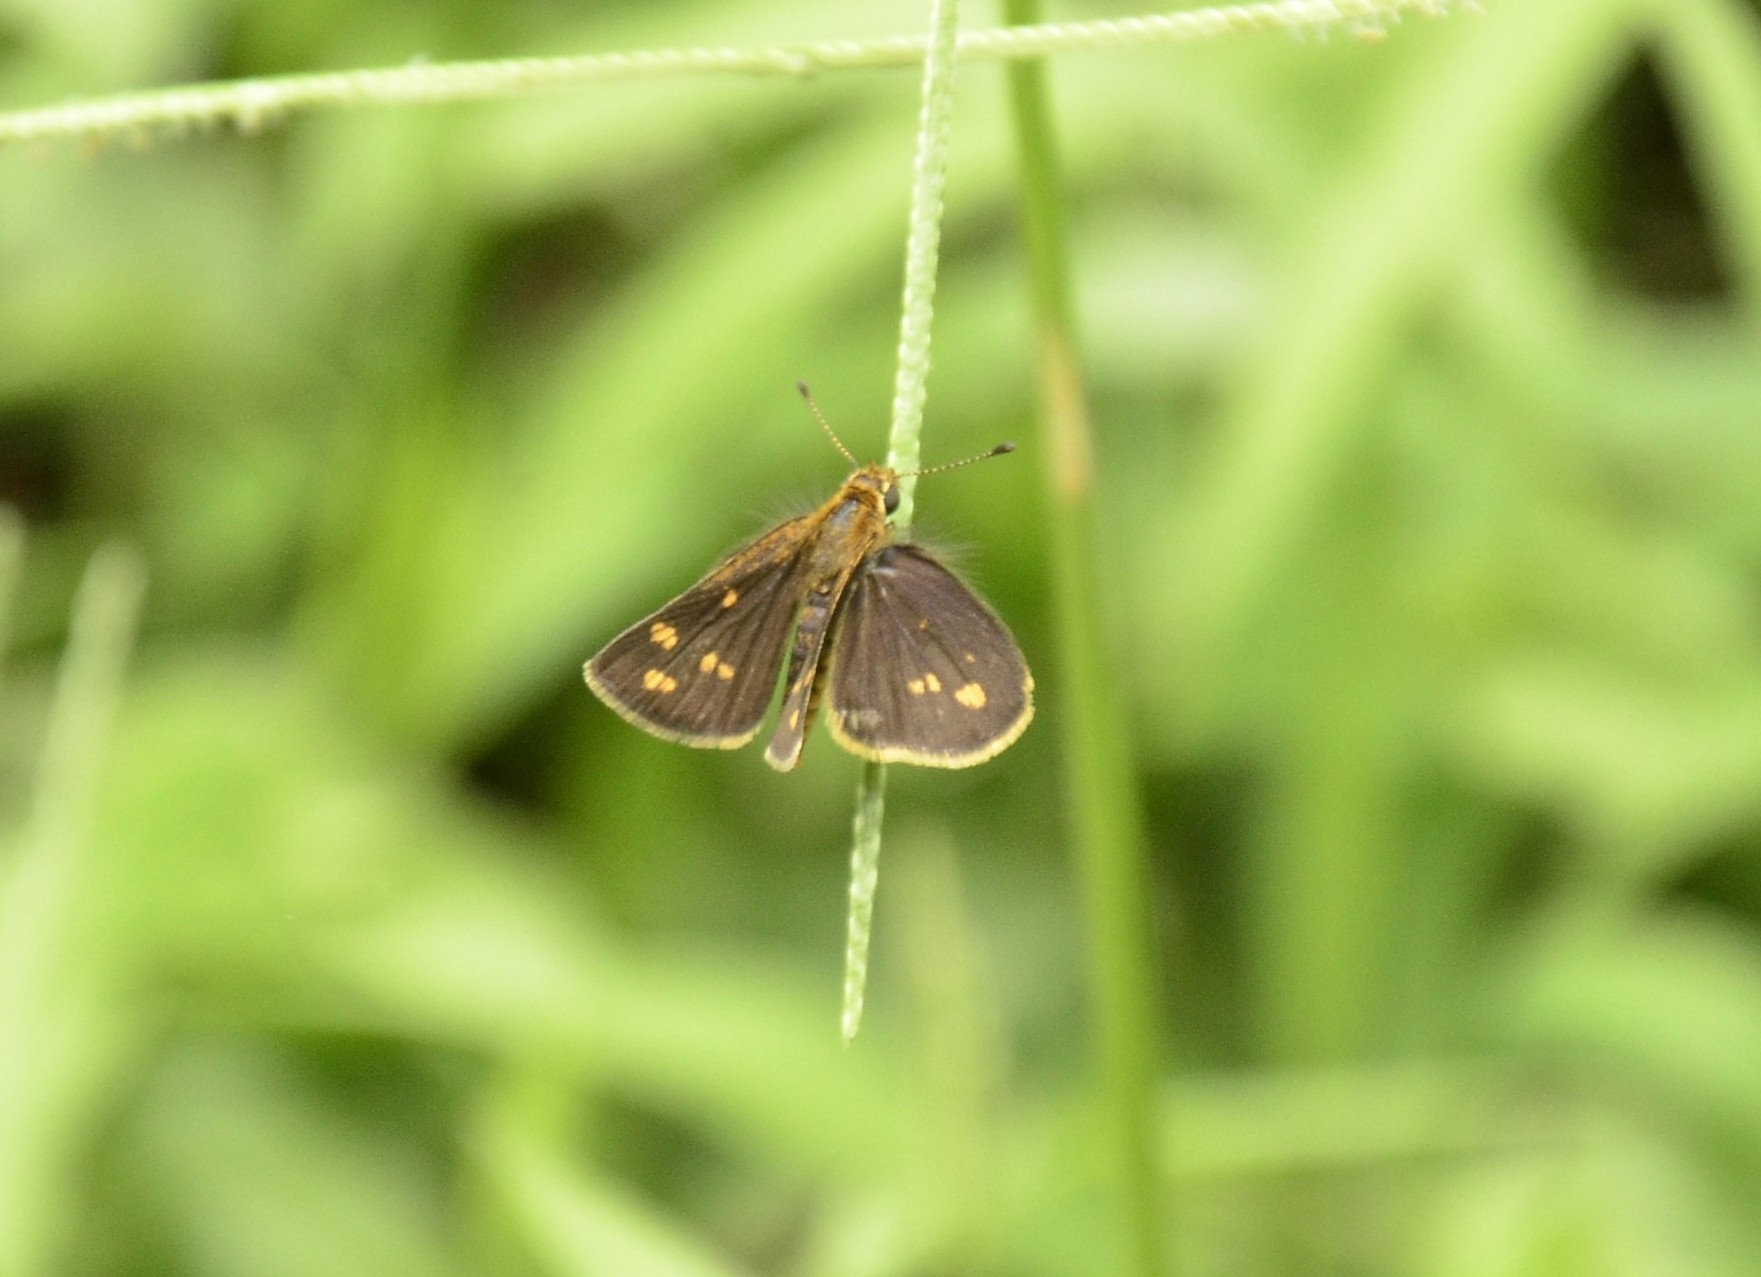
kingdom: Animalia
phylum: Arthropoda
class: Insecta
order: Lepidoptera
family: Hesperiidae
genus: Taractrocera
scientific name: Taractrocera ceramas
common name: Tamil grass dart
